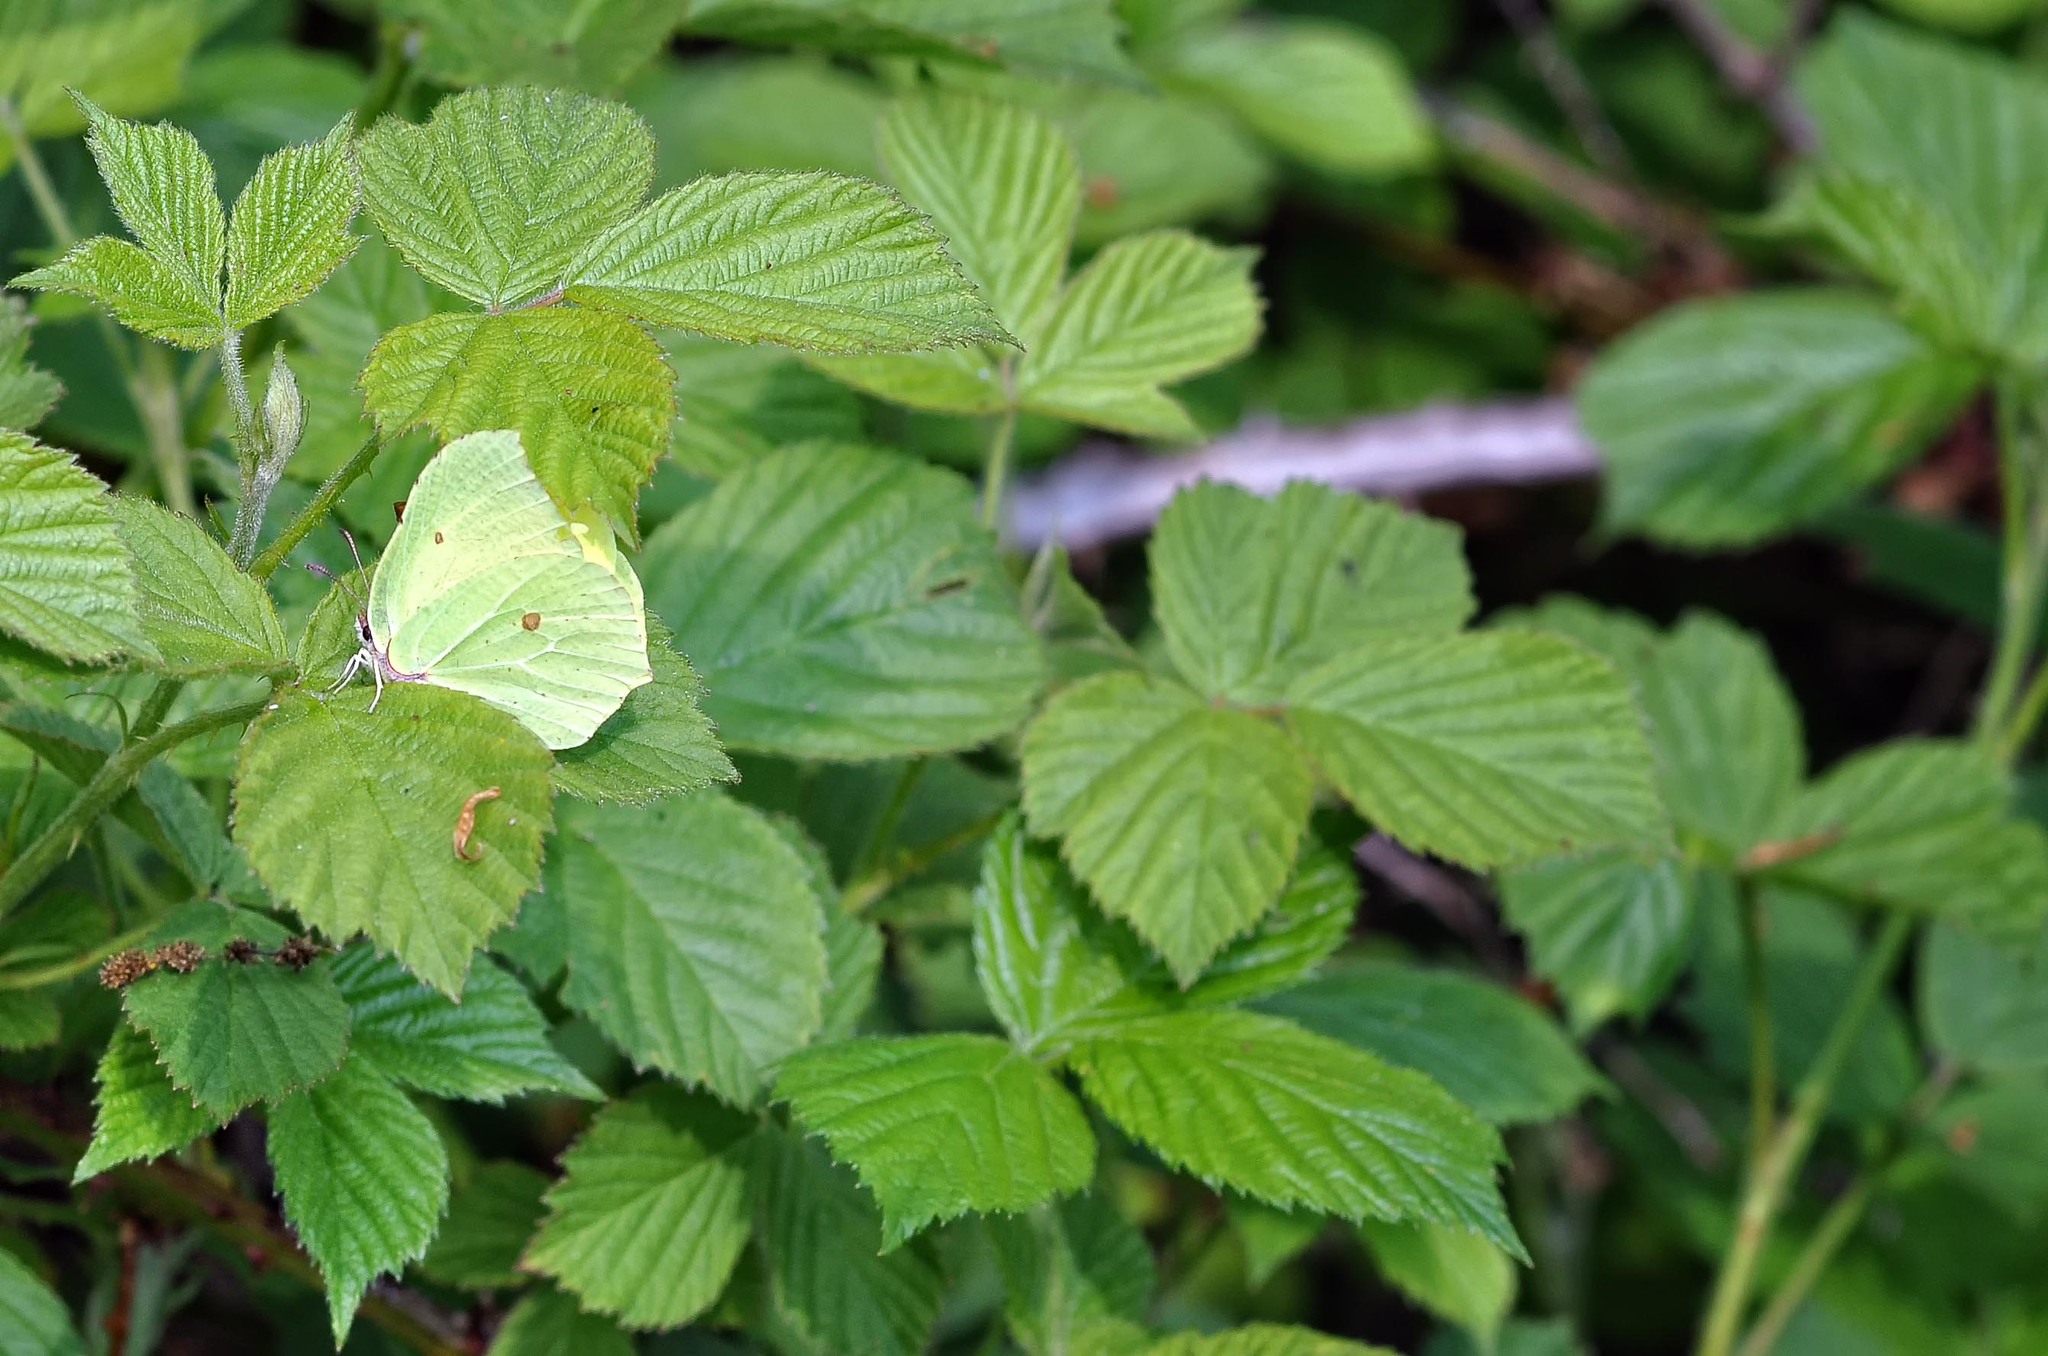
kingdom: Animalia
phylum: Arthropoda
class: Insecta
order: Lepidoptera
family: Pieridae
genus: Gonepteryx
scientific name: Gonepteryx rhamni
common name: Brimstone
